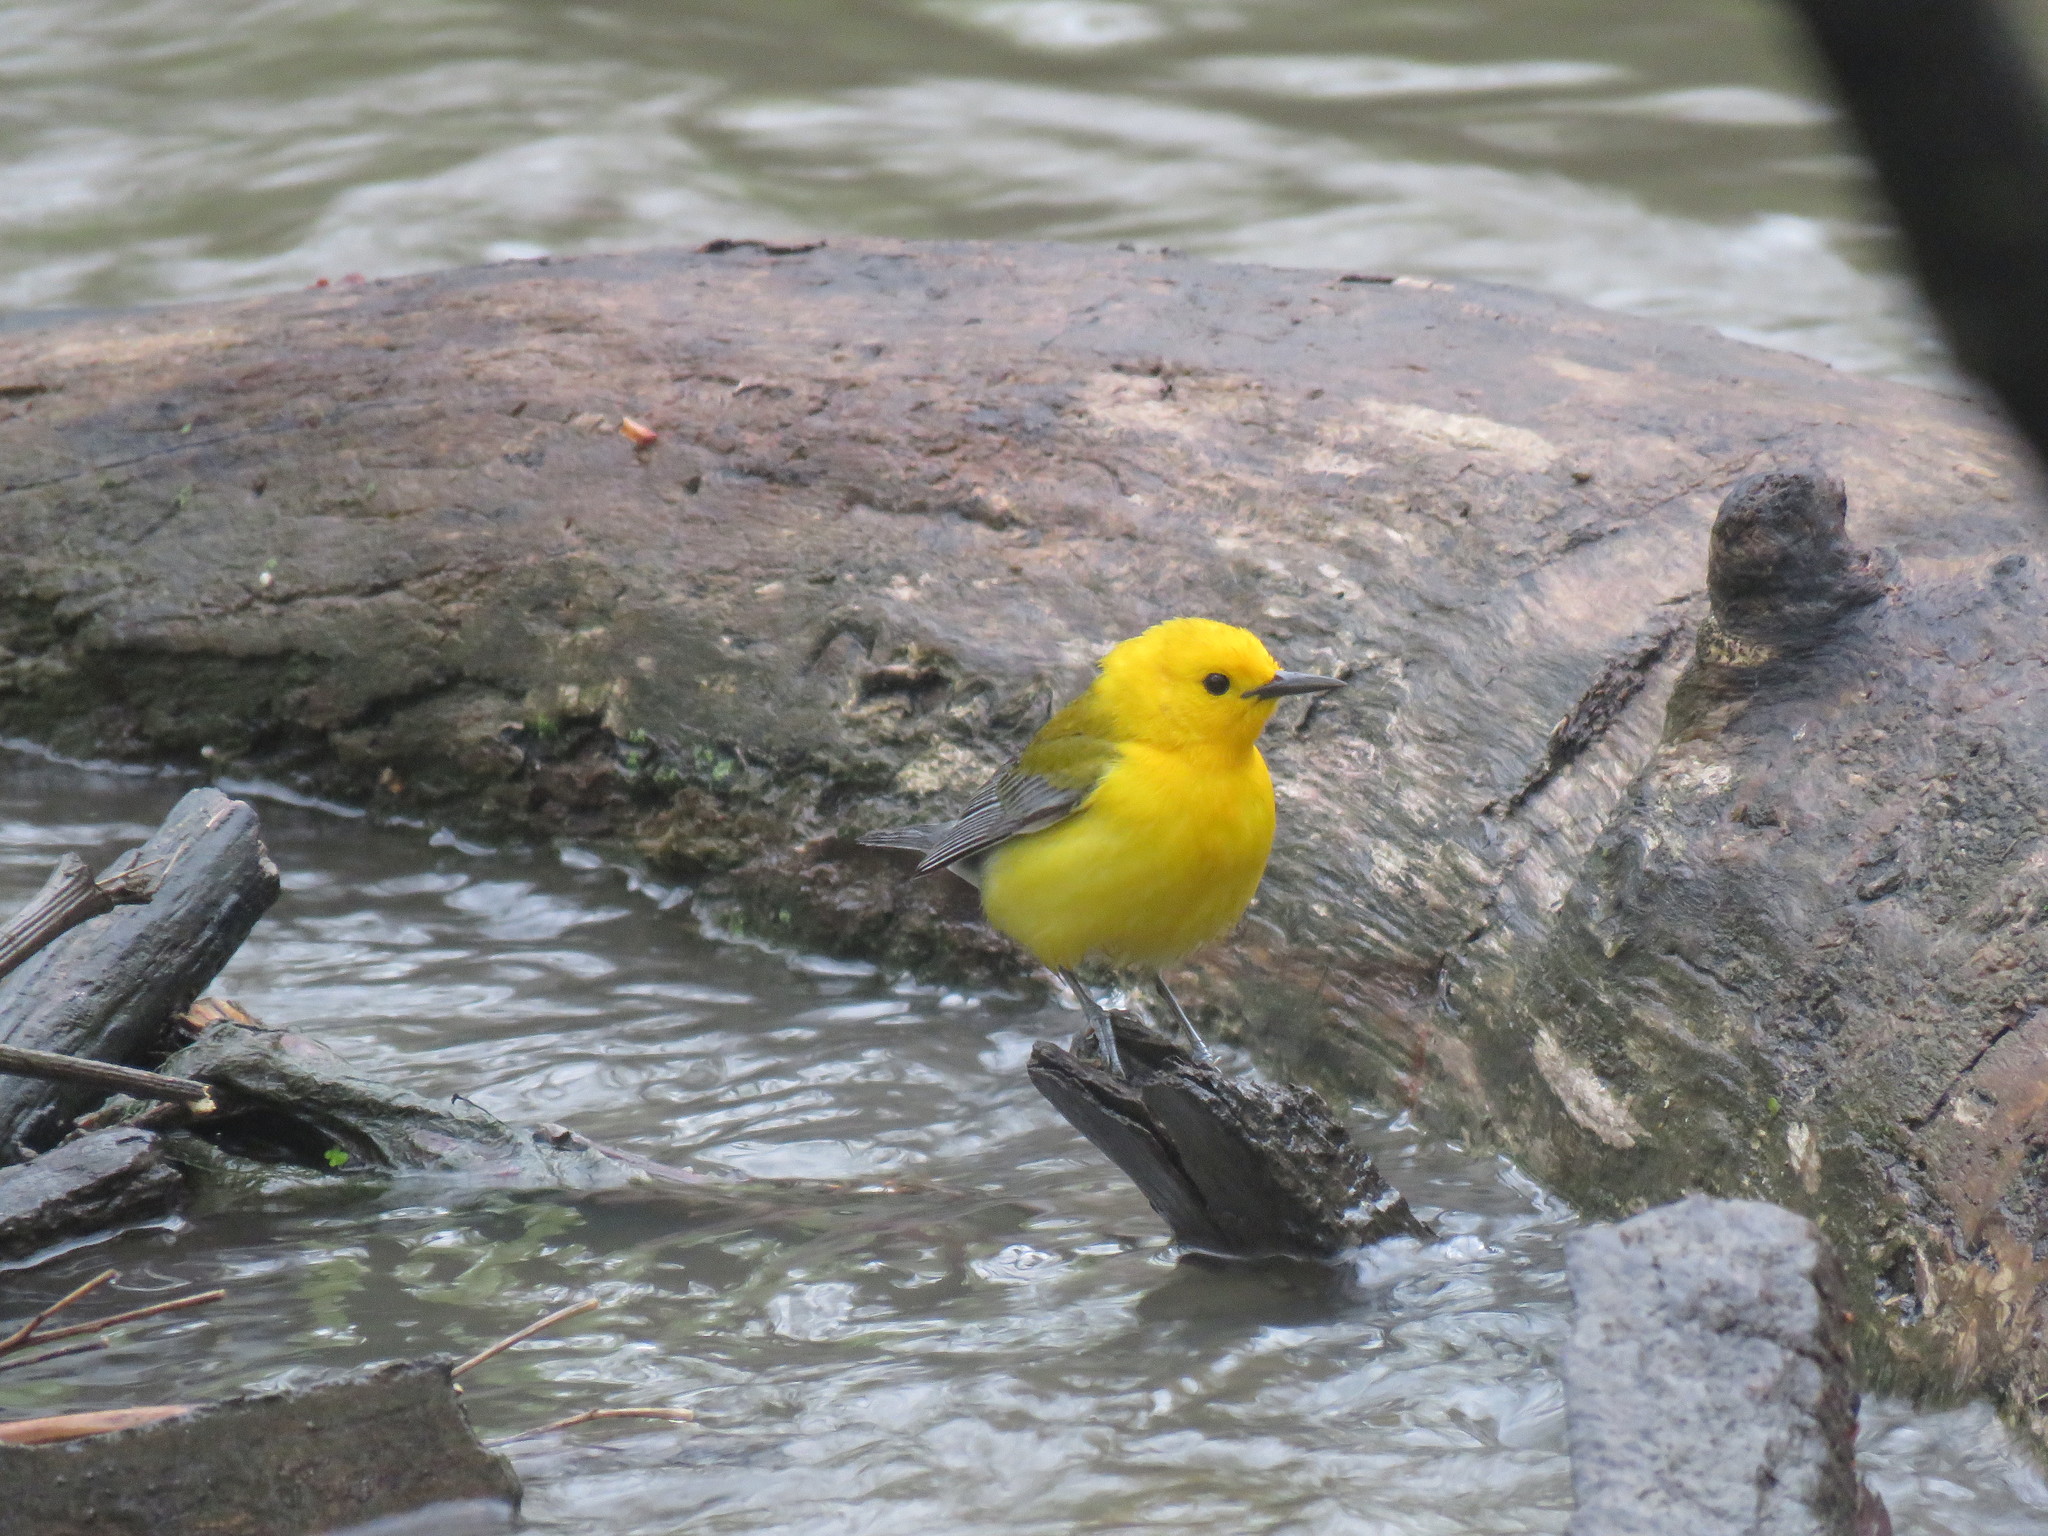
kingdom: Animalia
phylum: Chordata
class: Aves
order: Passeriformes
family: Parulidae
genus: Protonotaria
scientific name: Protonotaria citrea
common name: Prothonotary warbler
